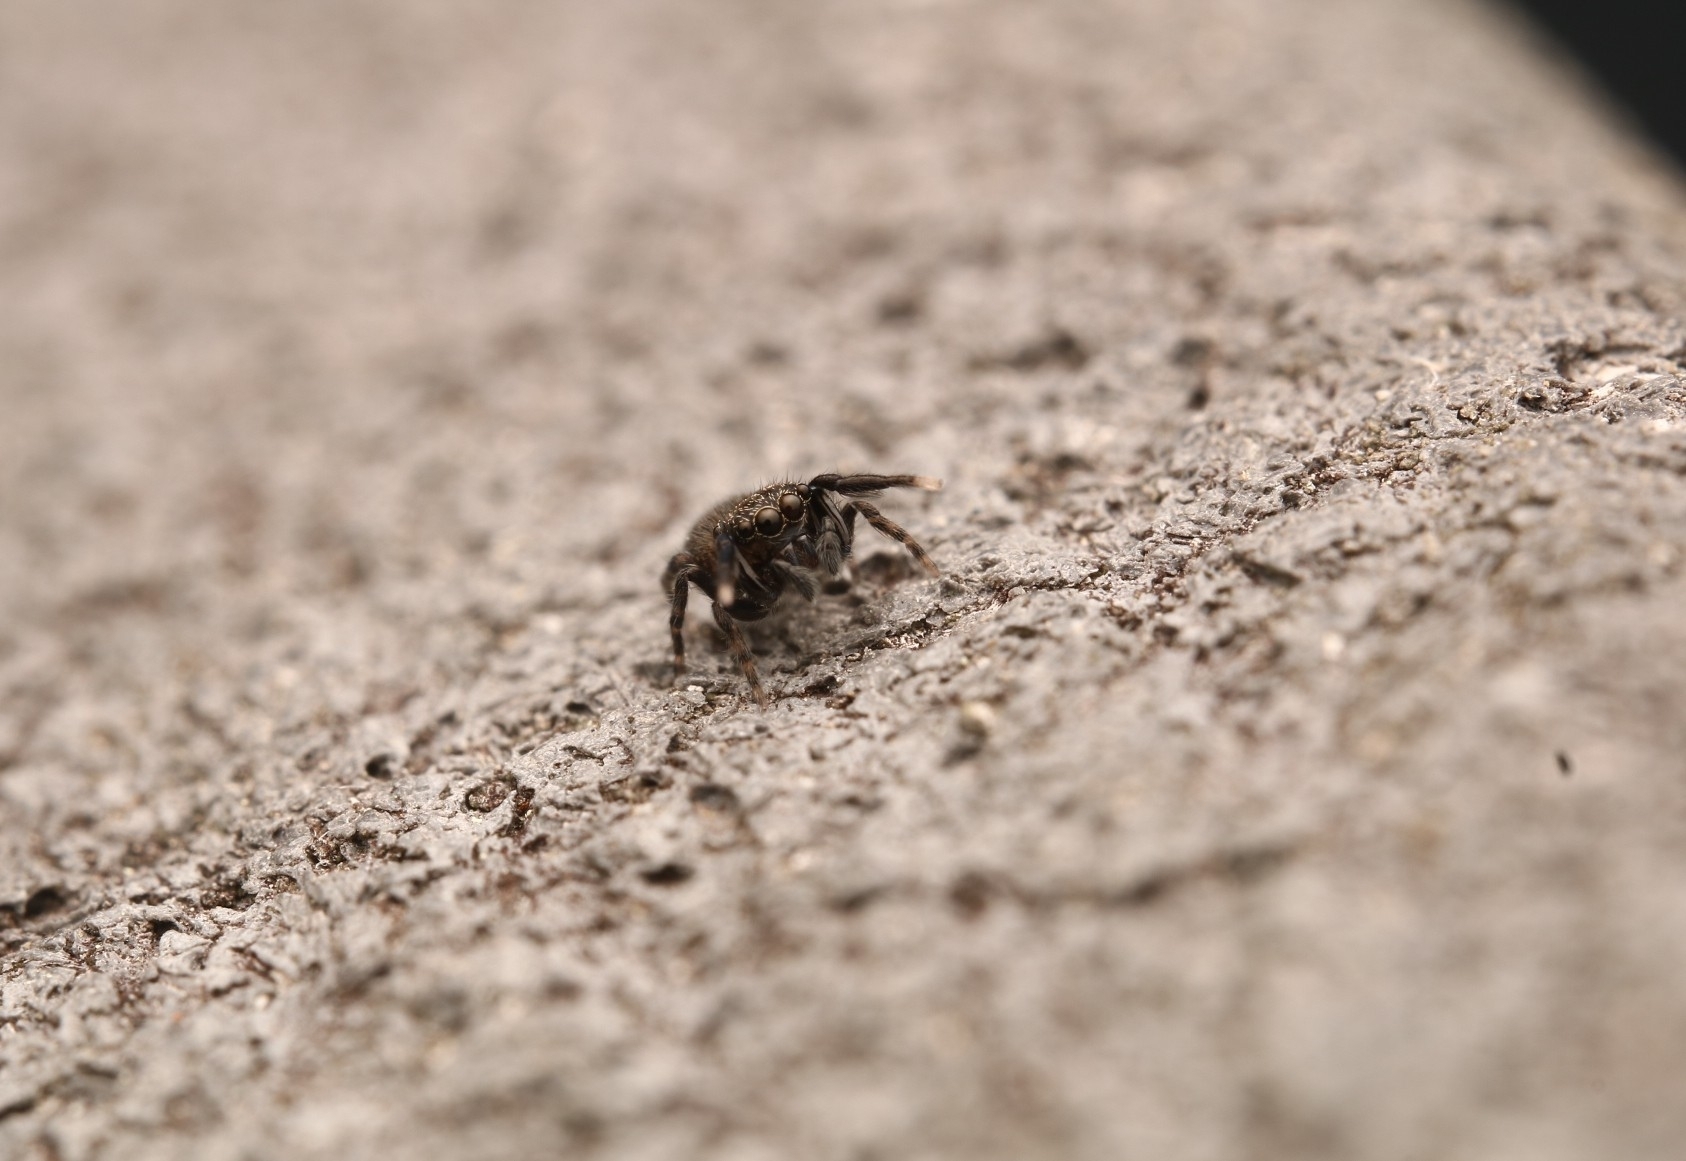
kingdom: Animalia
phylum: Arthropoda
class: Arachnida
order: Araneae
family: Salticidae
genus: Neon
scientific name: Neon avalonus
